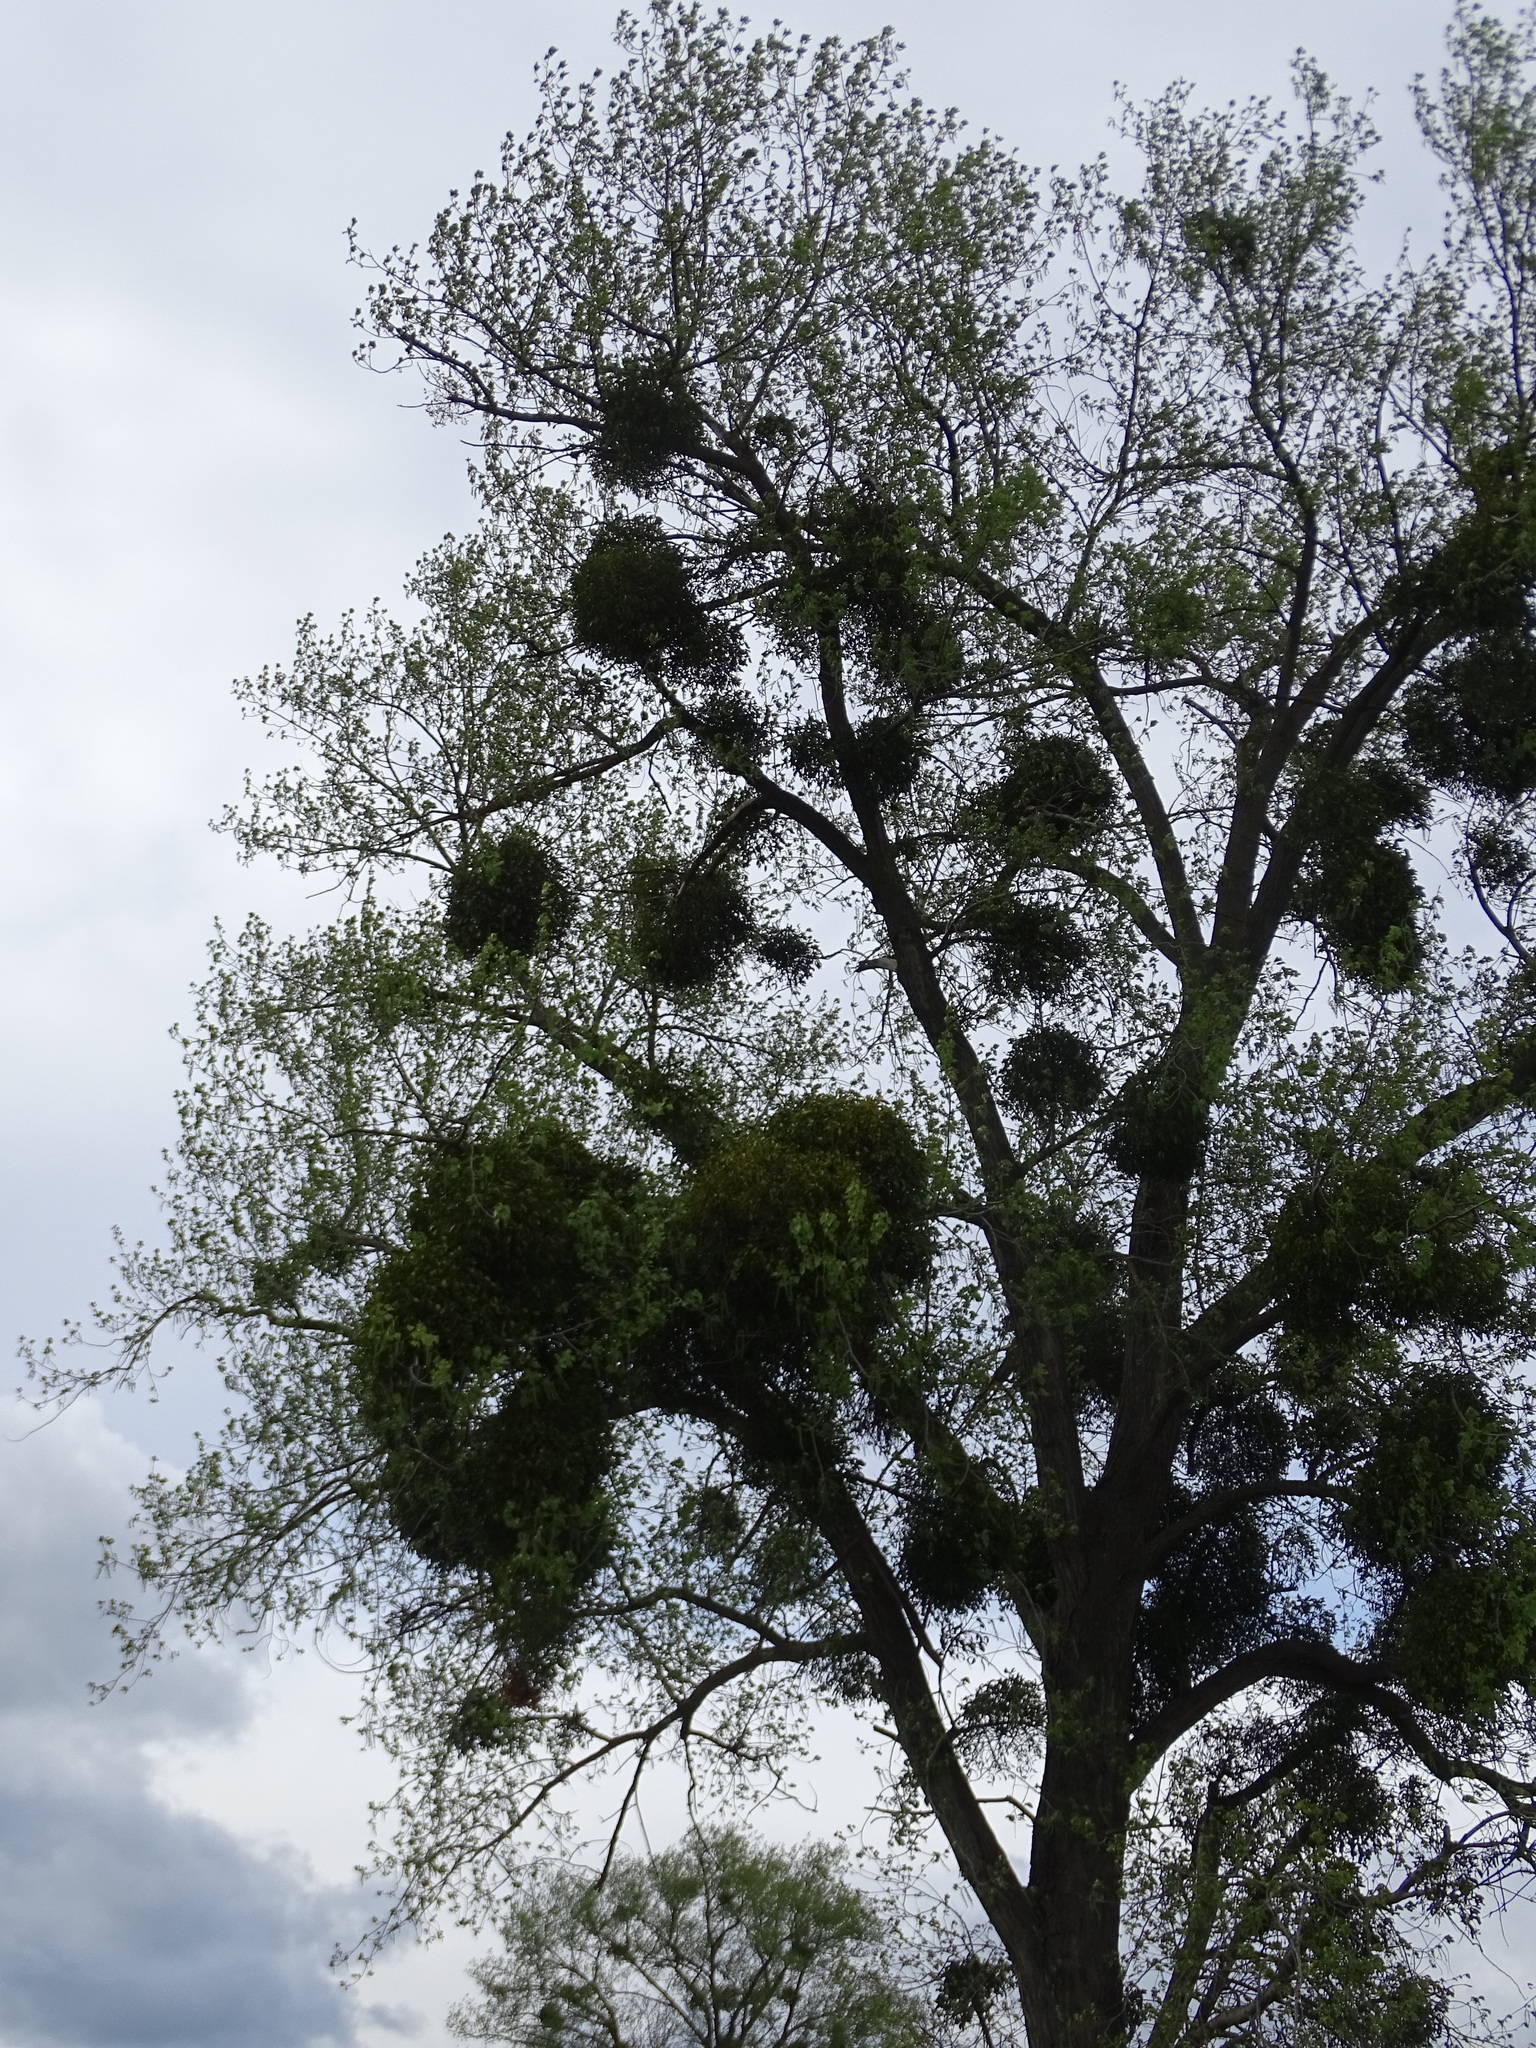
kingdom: Plantae
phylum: Tracheophyta
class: Magnoliopsida
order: Santalales
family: Viscaceae
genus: Viscum
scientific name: Viscum album
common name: Mistletoe
